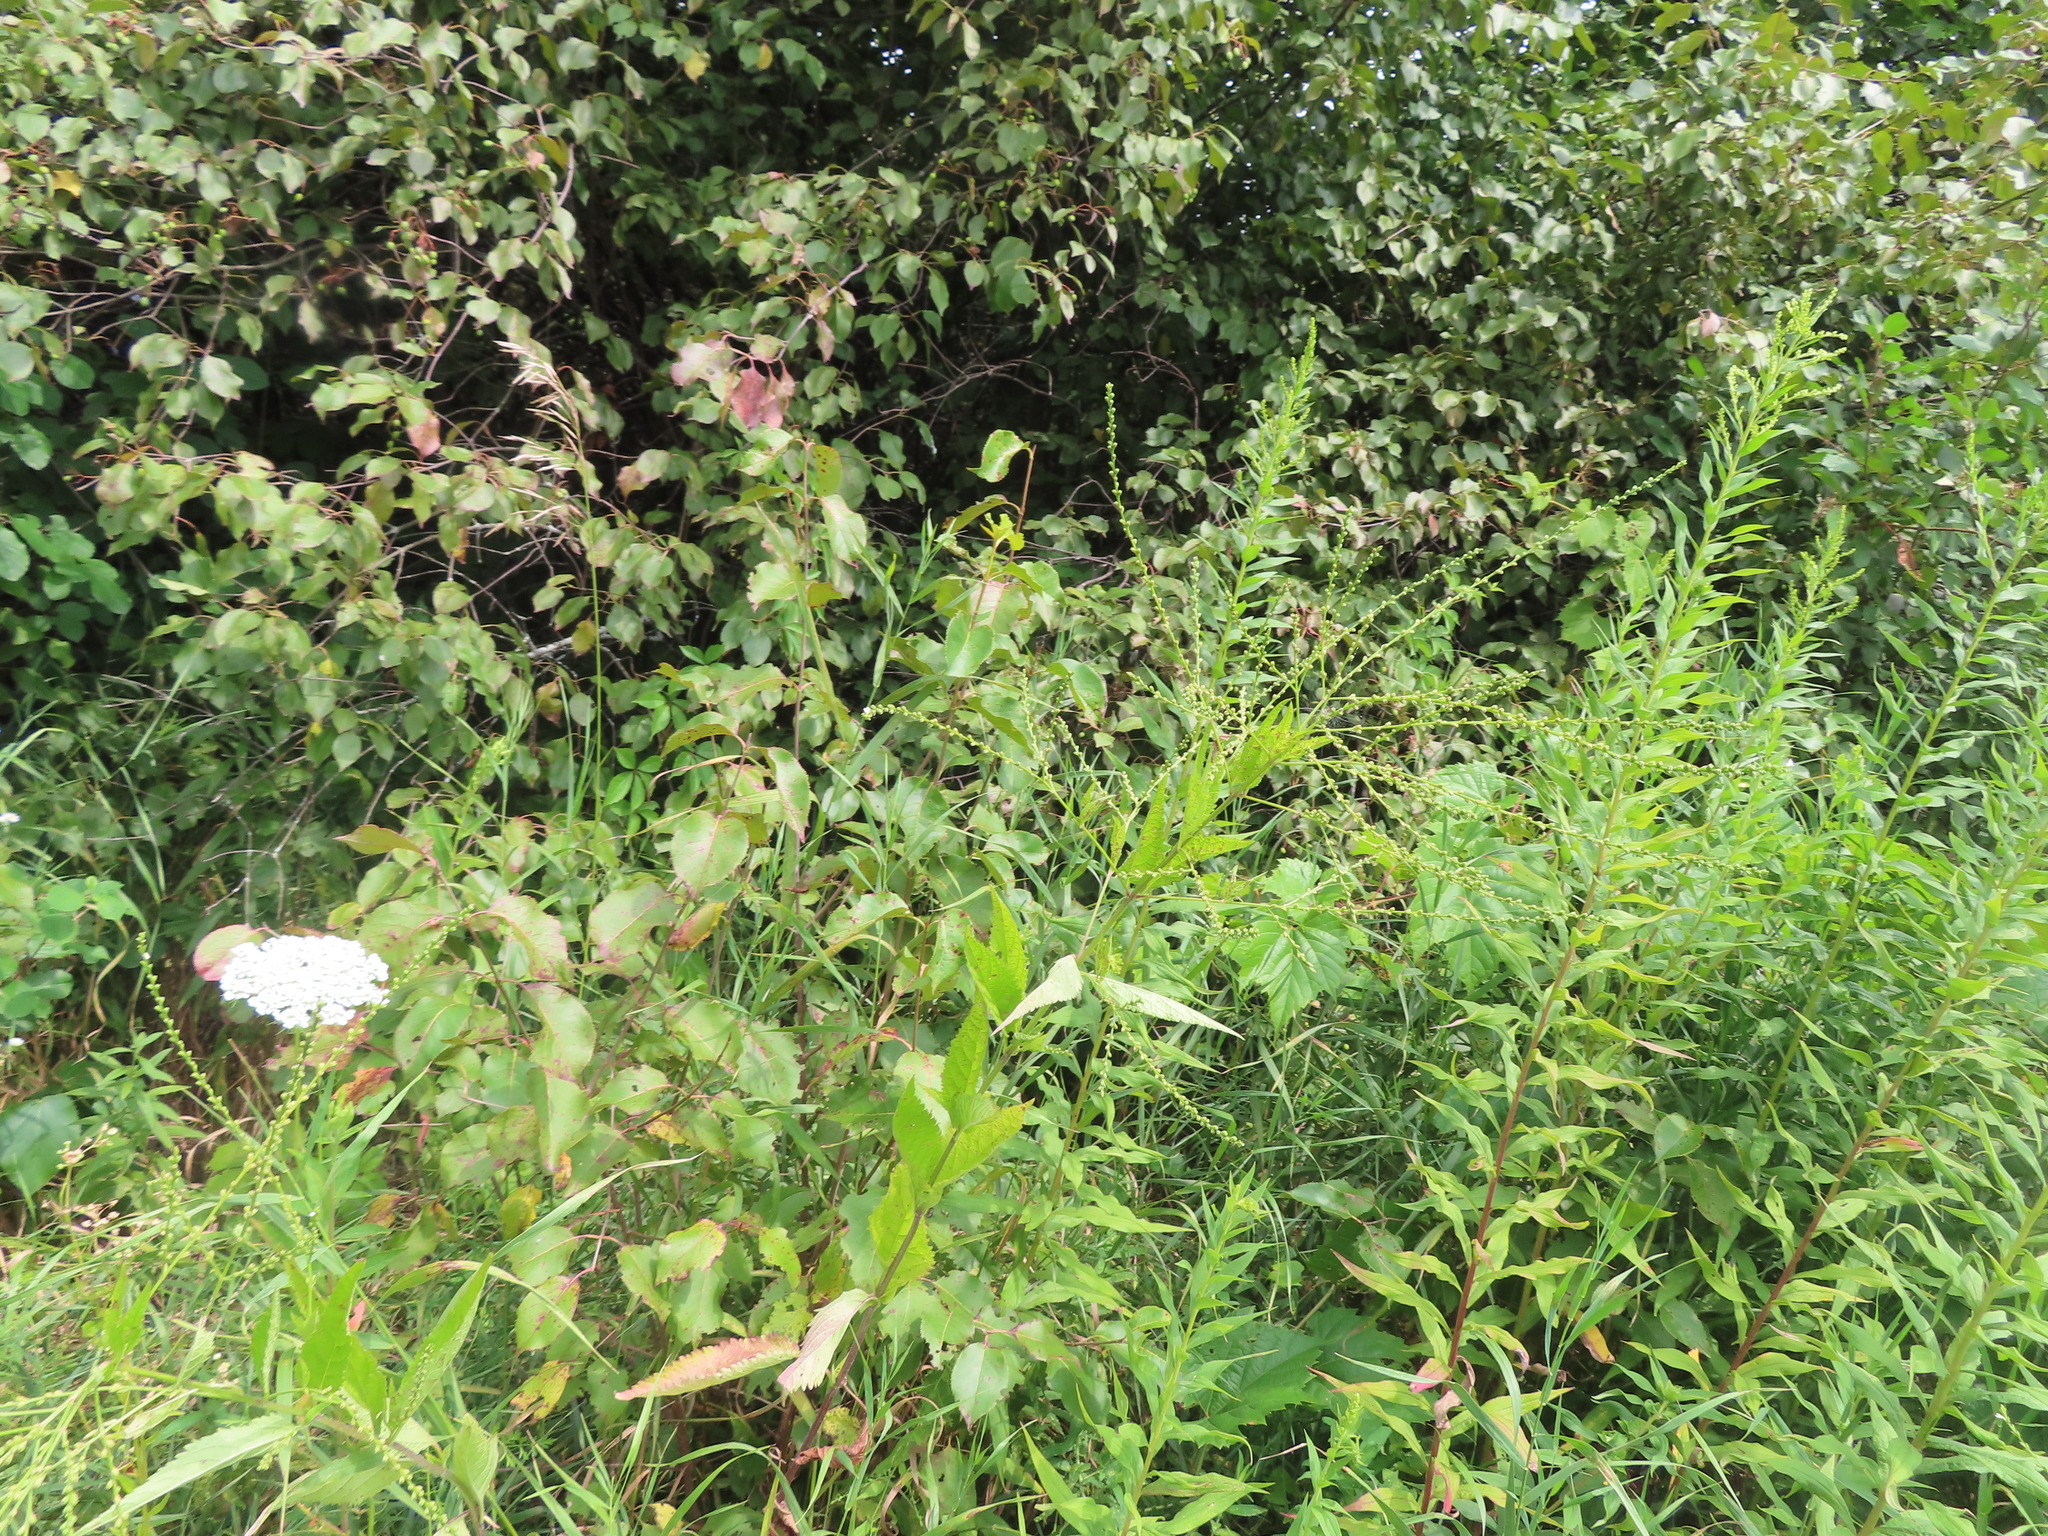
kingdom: Plantae
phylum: Tracheophyta
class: Magnoliopsida
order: Lamiales
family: Verbenaceae
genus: Verbena
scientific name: Verbena urticifolia
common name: Nettle-leaved vervain
